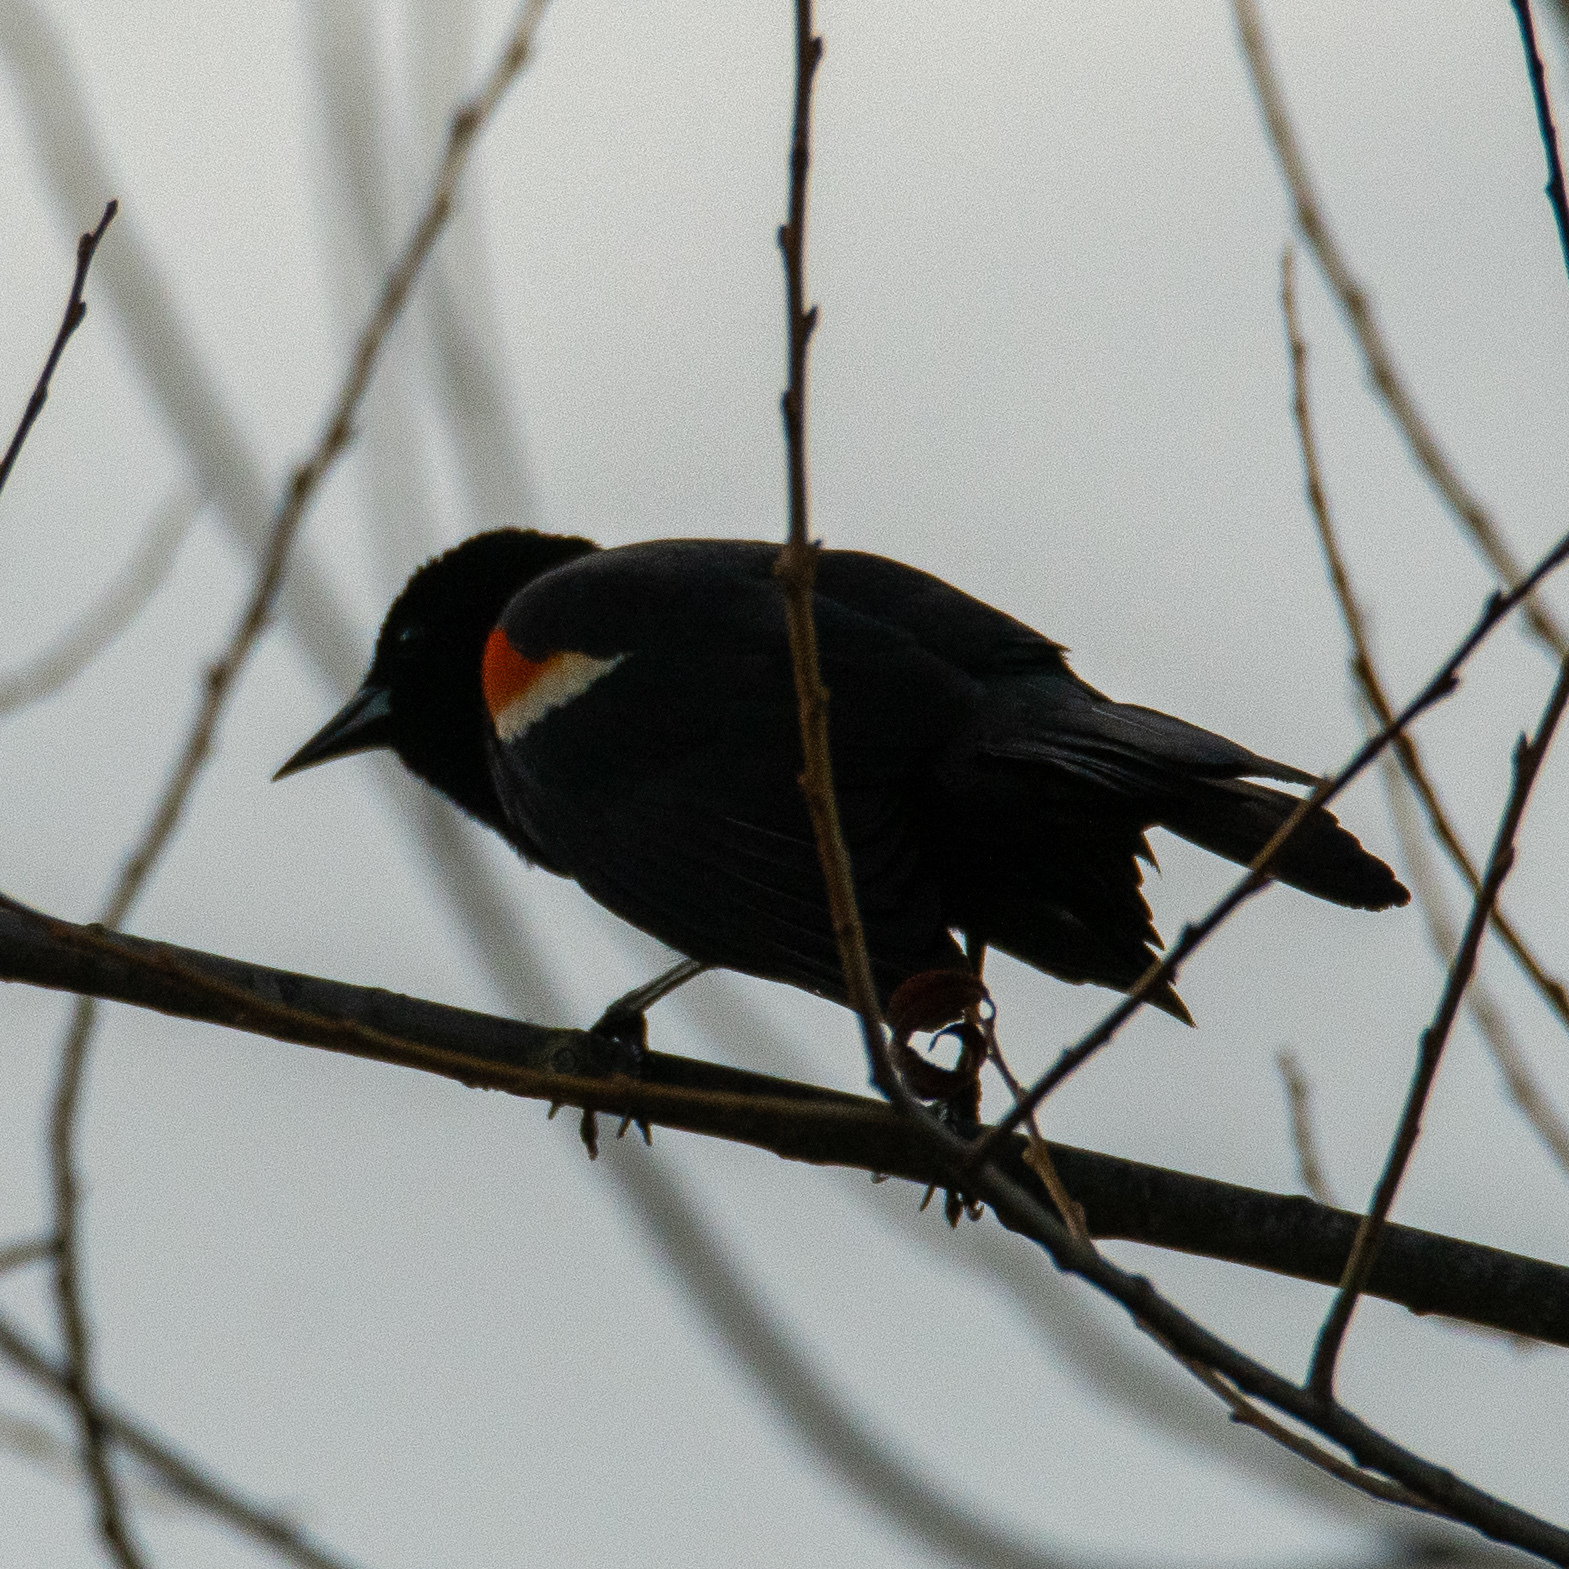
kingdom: Animalia
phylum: Chordata
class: Aves
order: Passeriformes
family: Icteridae
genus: Agelaius
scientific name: Agelaius phoeniceus
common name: Red-winged blackbird
